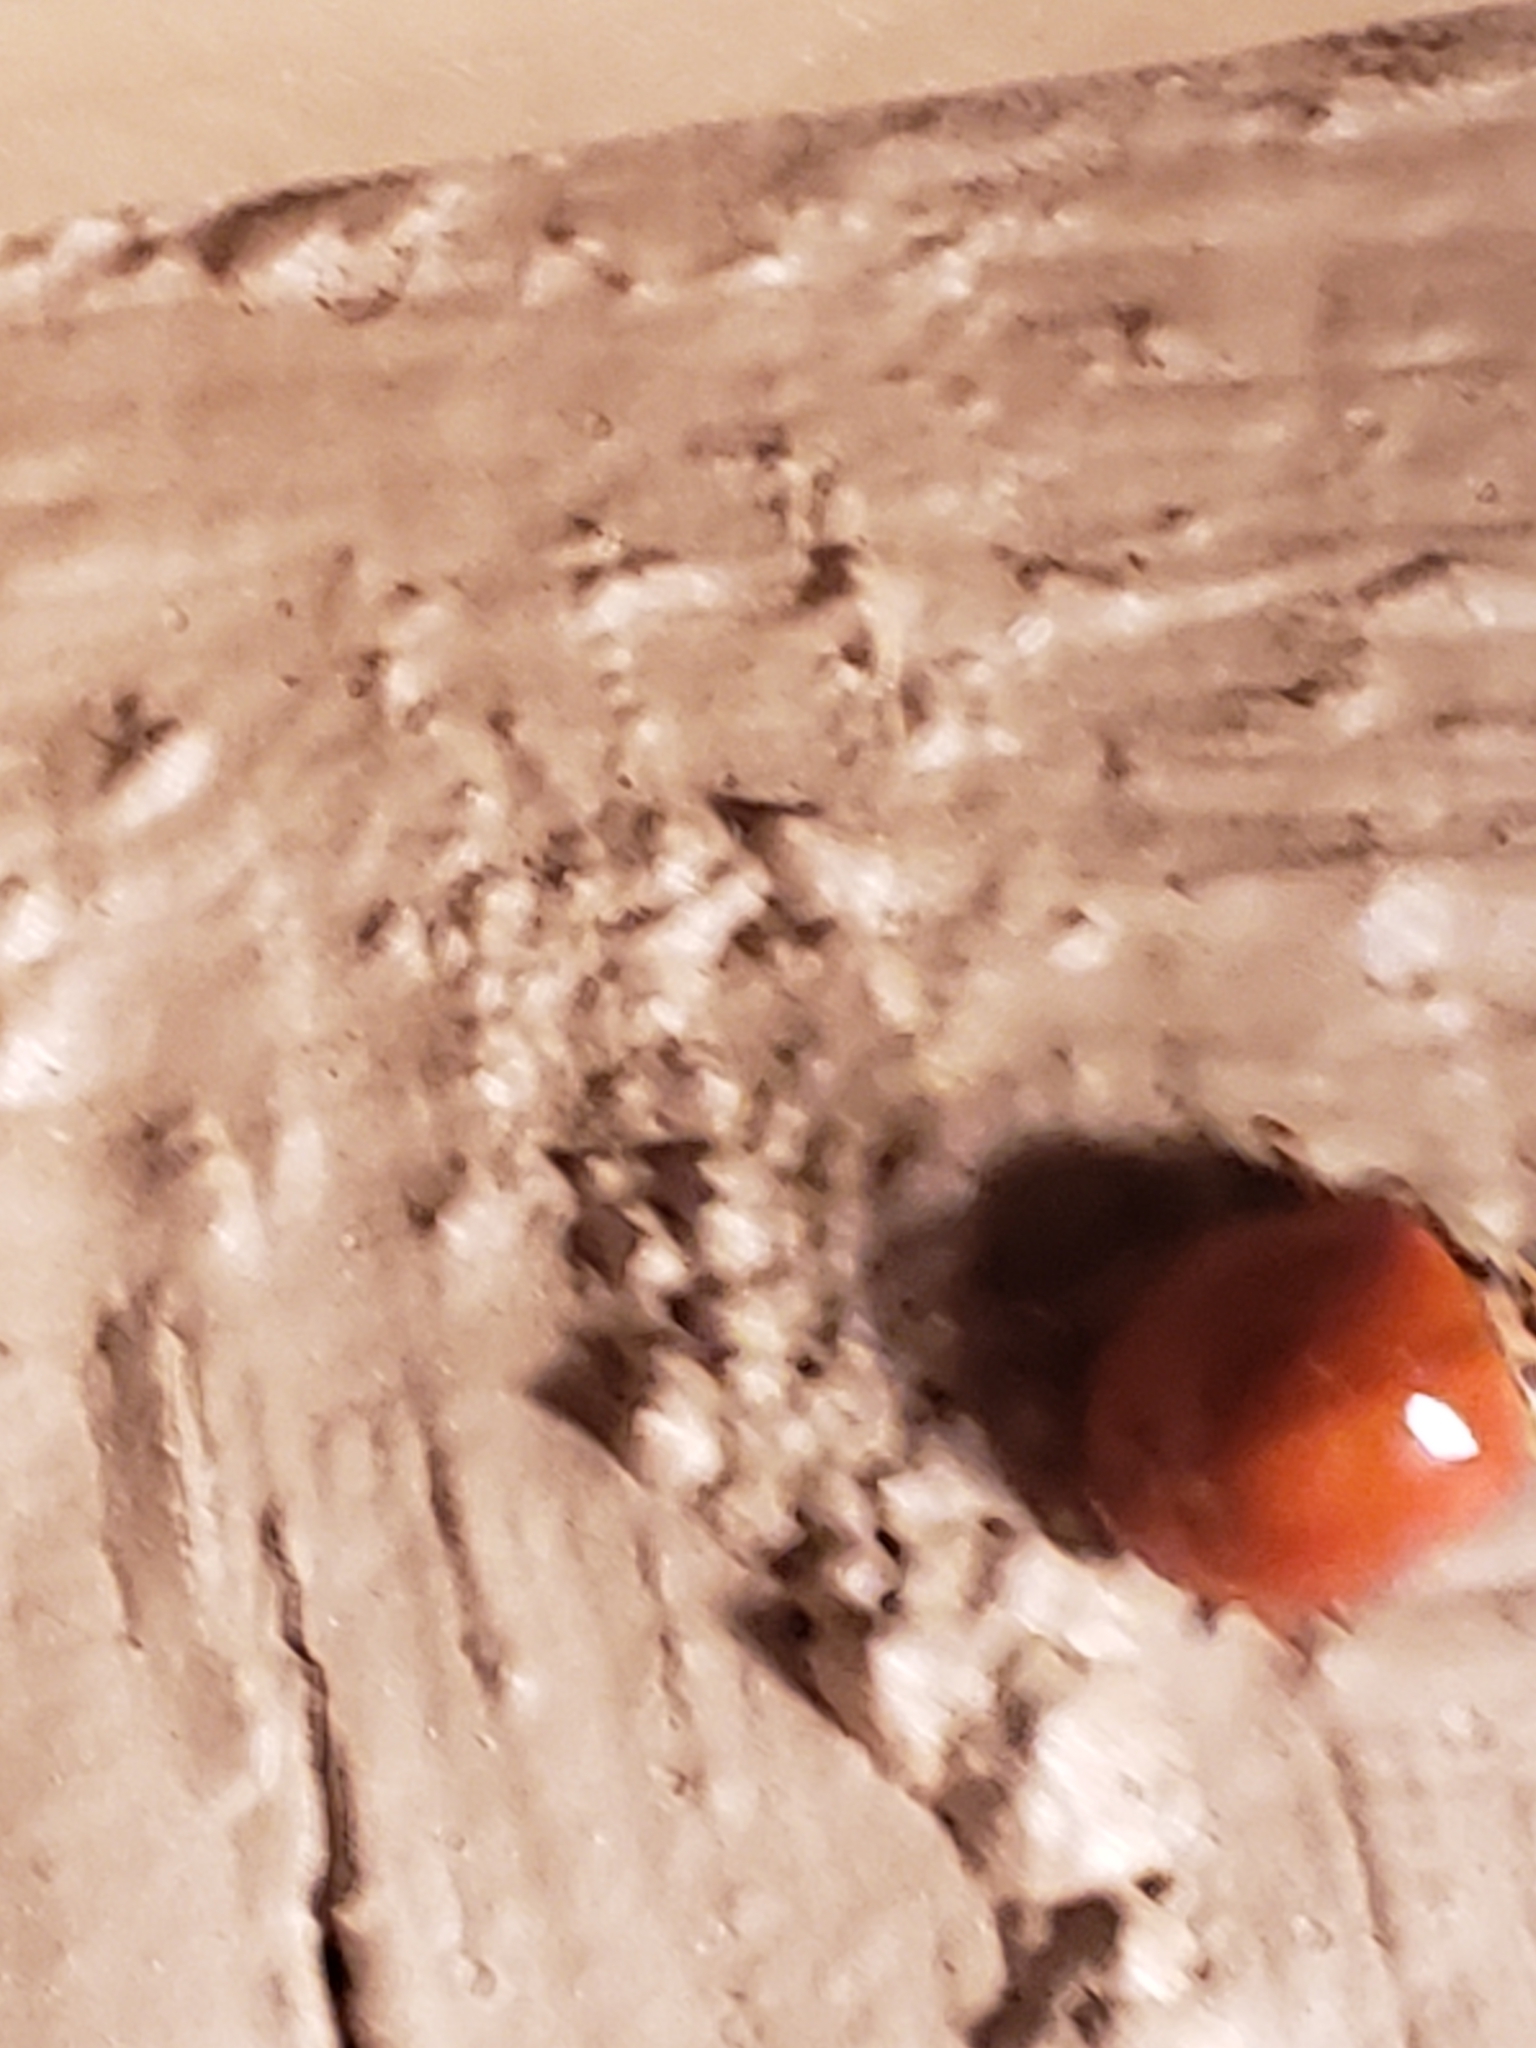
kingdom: Animalia
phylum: Arthropoda
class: Insecta
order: Coleoptera
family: Coccinellidae
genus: Harmonia
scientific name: Harmonia axyridis
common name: Harlequin ladybird
